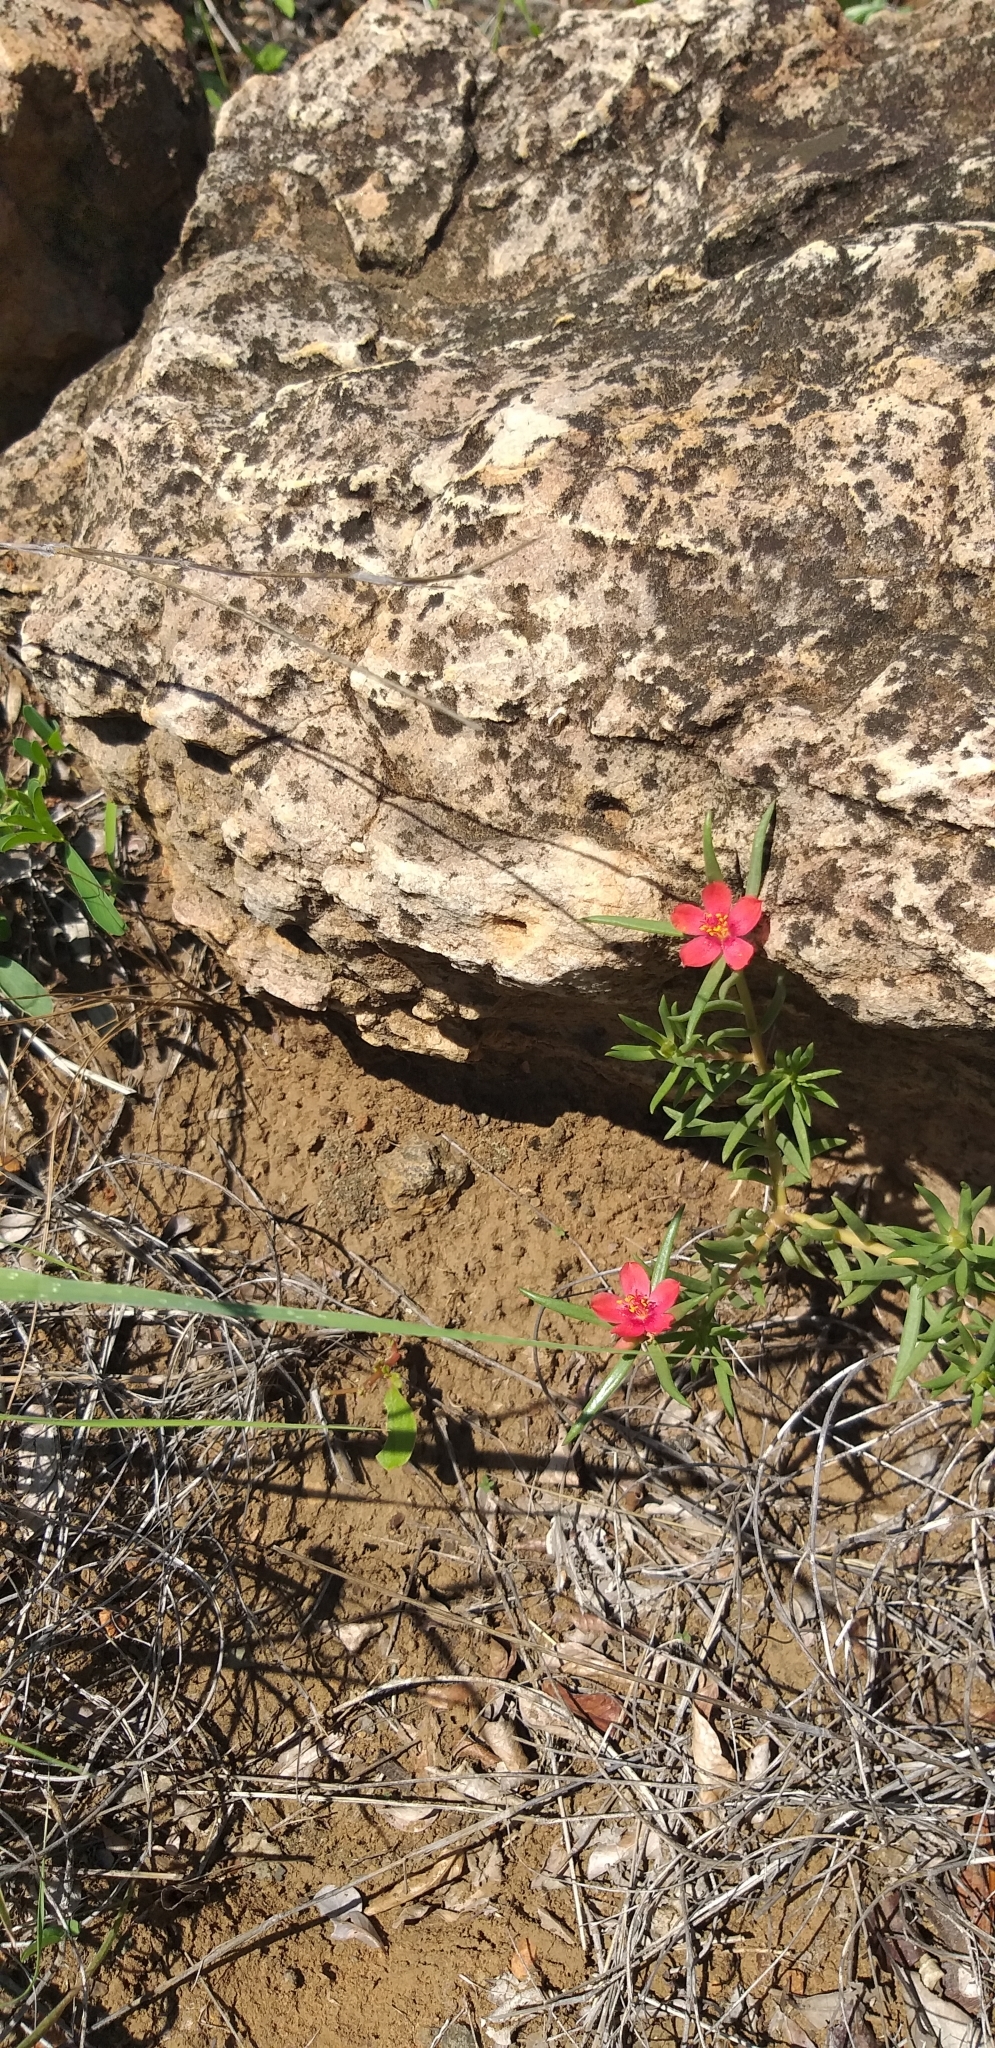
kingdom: Plantae
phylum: Tracheophyta
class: Magnoliopsida
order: Caryophyllales
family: Portulacaceae
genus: Portulaca
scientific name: Portulaca kermesina
